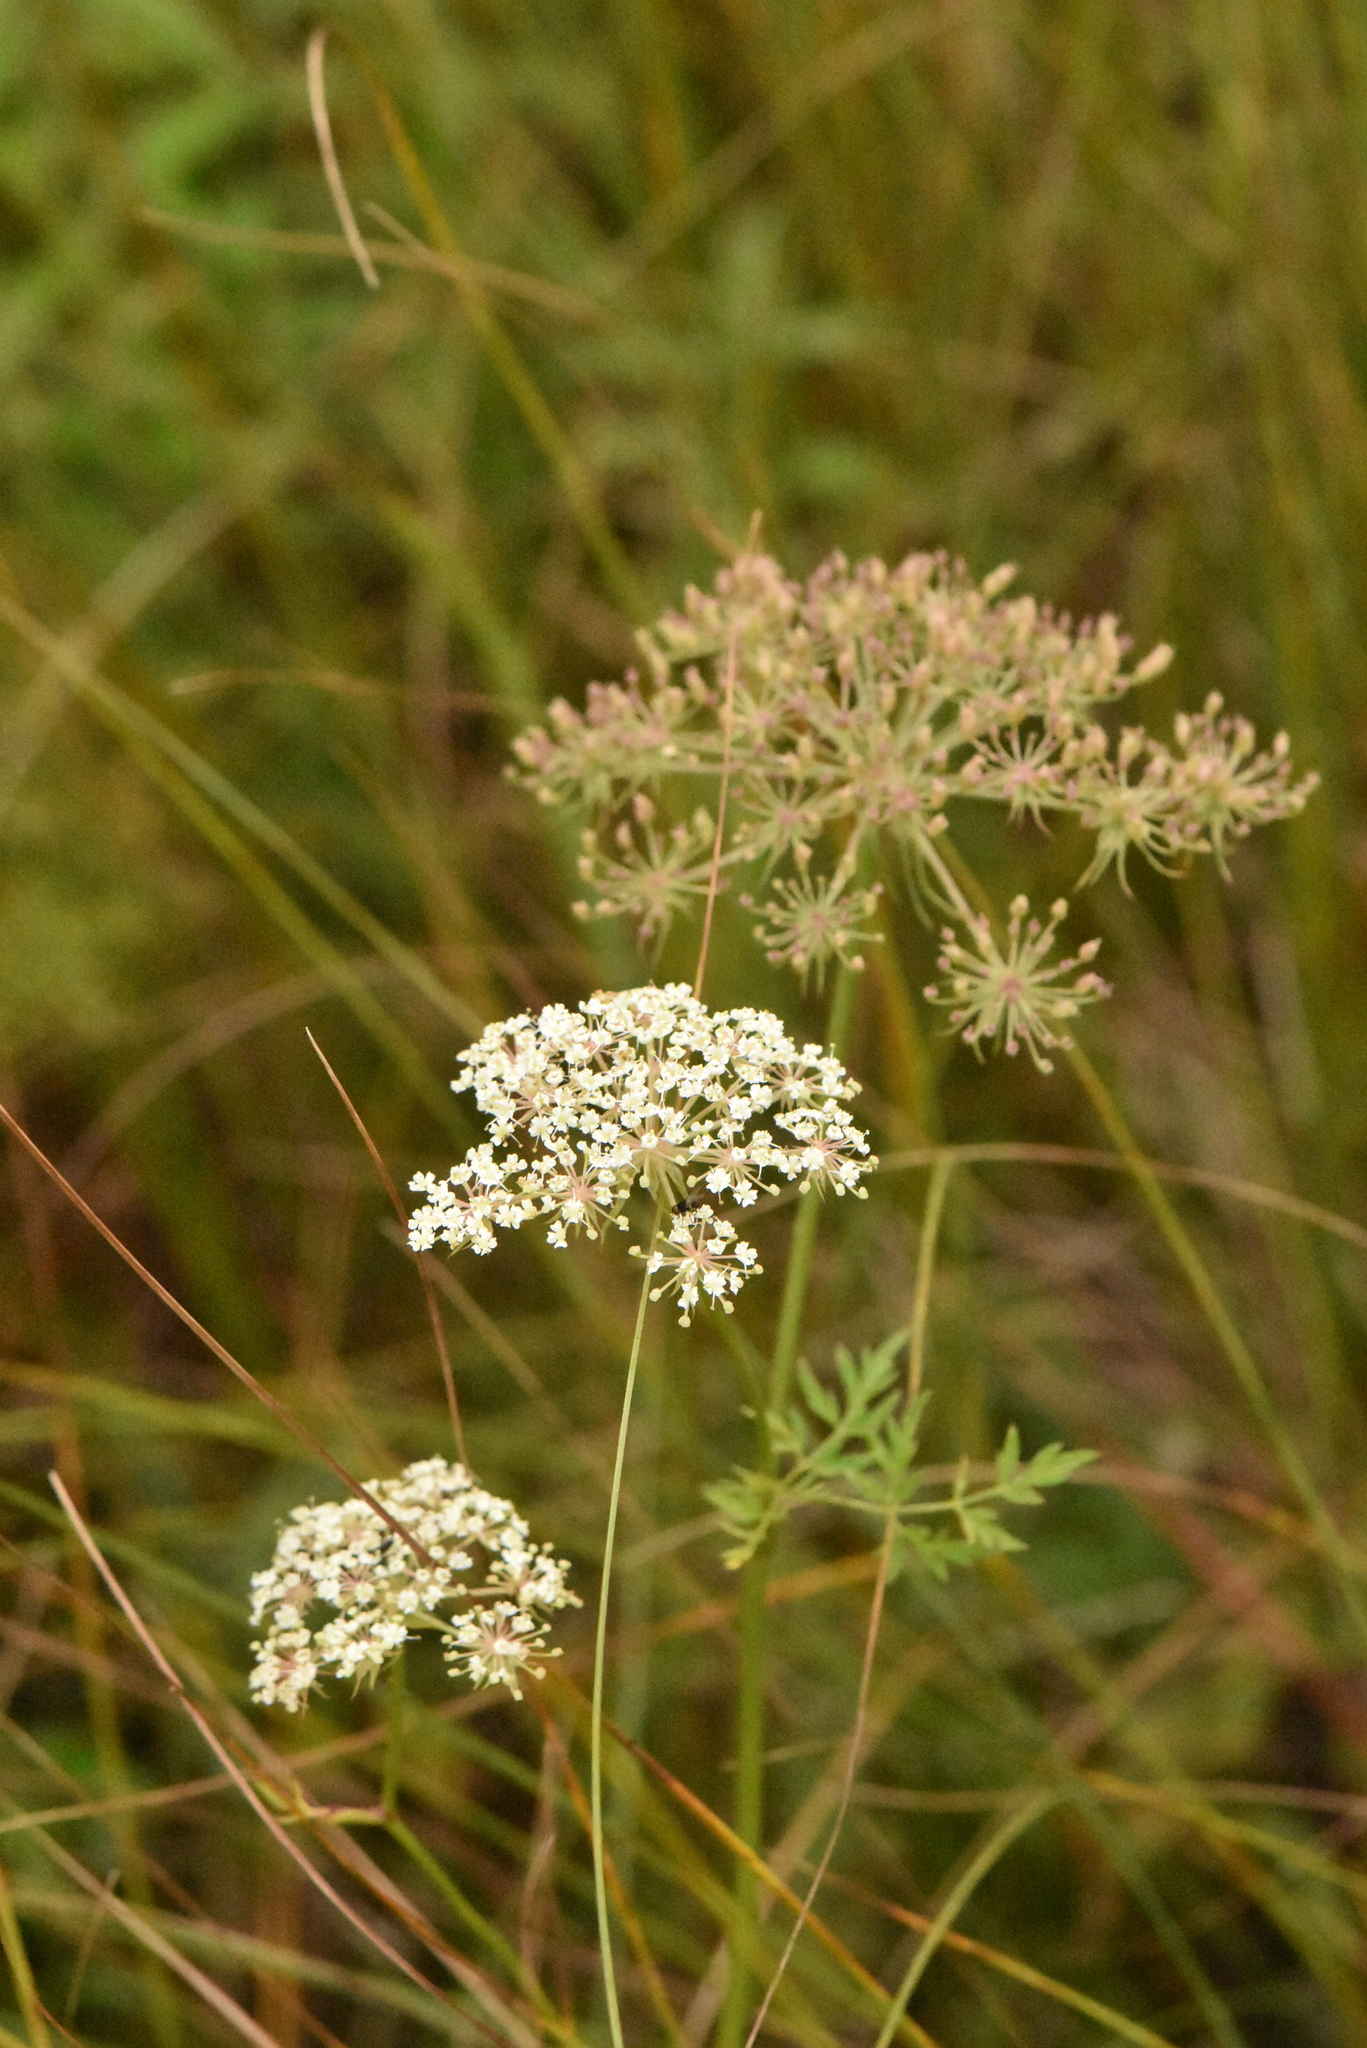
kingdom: Plantae
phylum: Tracheophyta
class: Magnoliopsida
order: Apiales
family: Apiaceae
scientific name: Apiaceae
